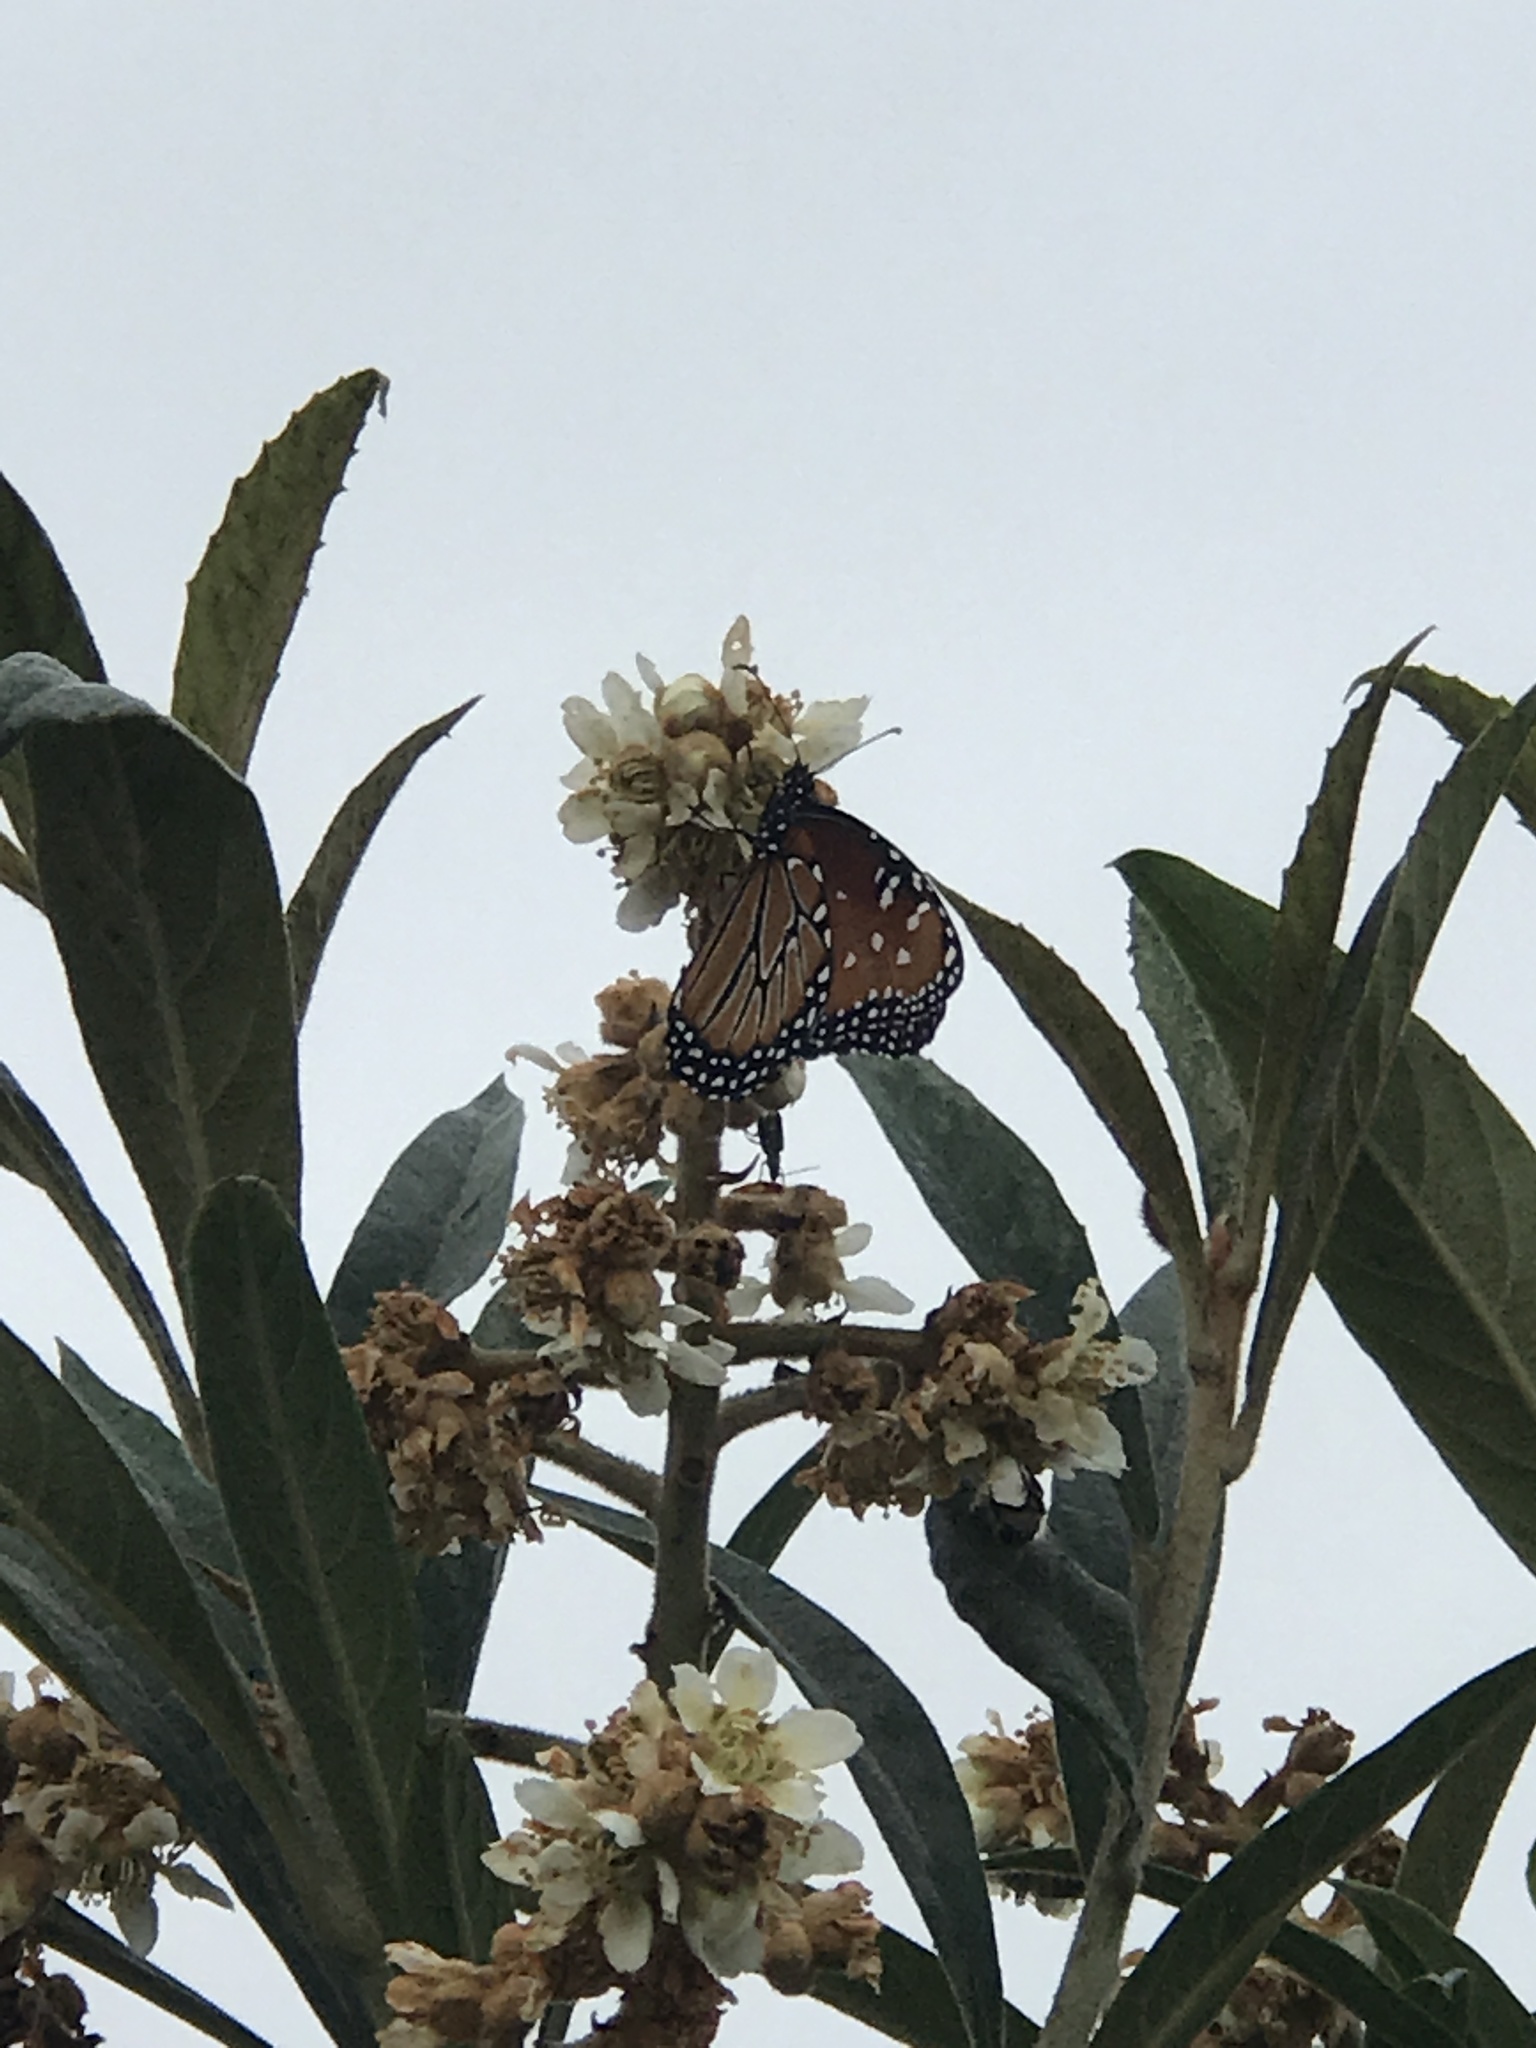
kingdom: Animalia
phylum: Arthropoda
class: Insecta
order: Lepidoptera
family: Nymphalidae
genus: Danaus
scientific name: Danaus gilippus
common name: Queen
